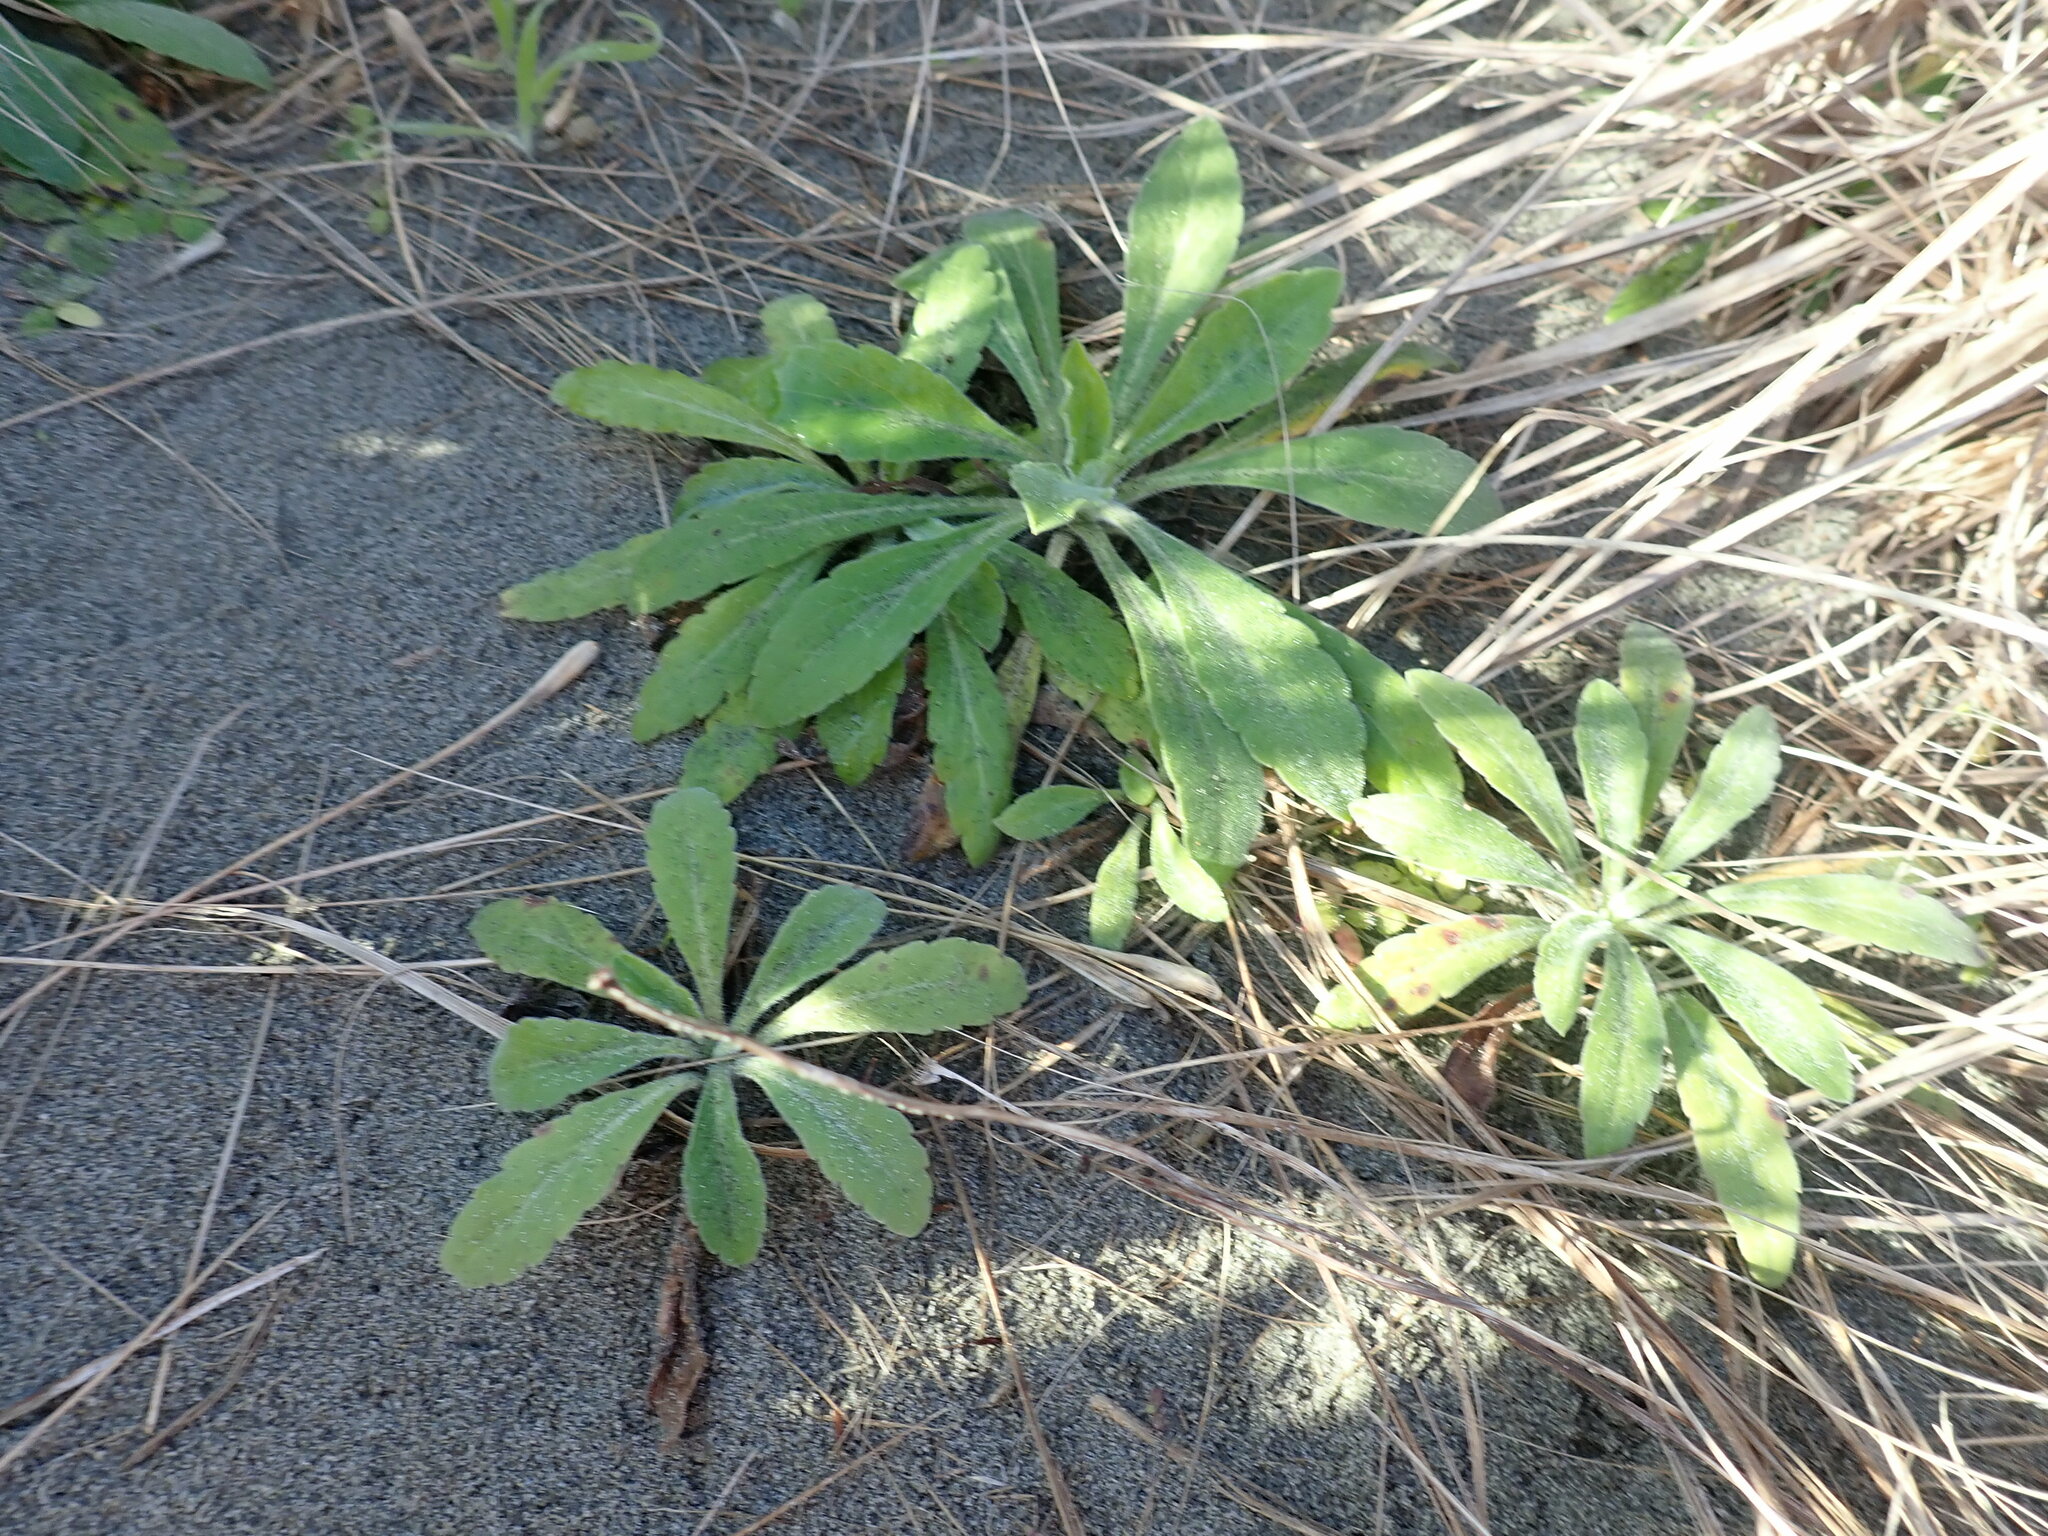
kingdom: Plantae
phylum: Tracheophyta
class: Magnoliopsida
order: Asterales
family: Asteraceae
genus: Erigeron
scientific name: Erigeron sumatrensis
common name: Daisy
